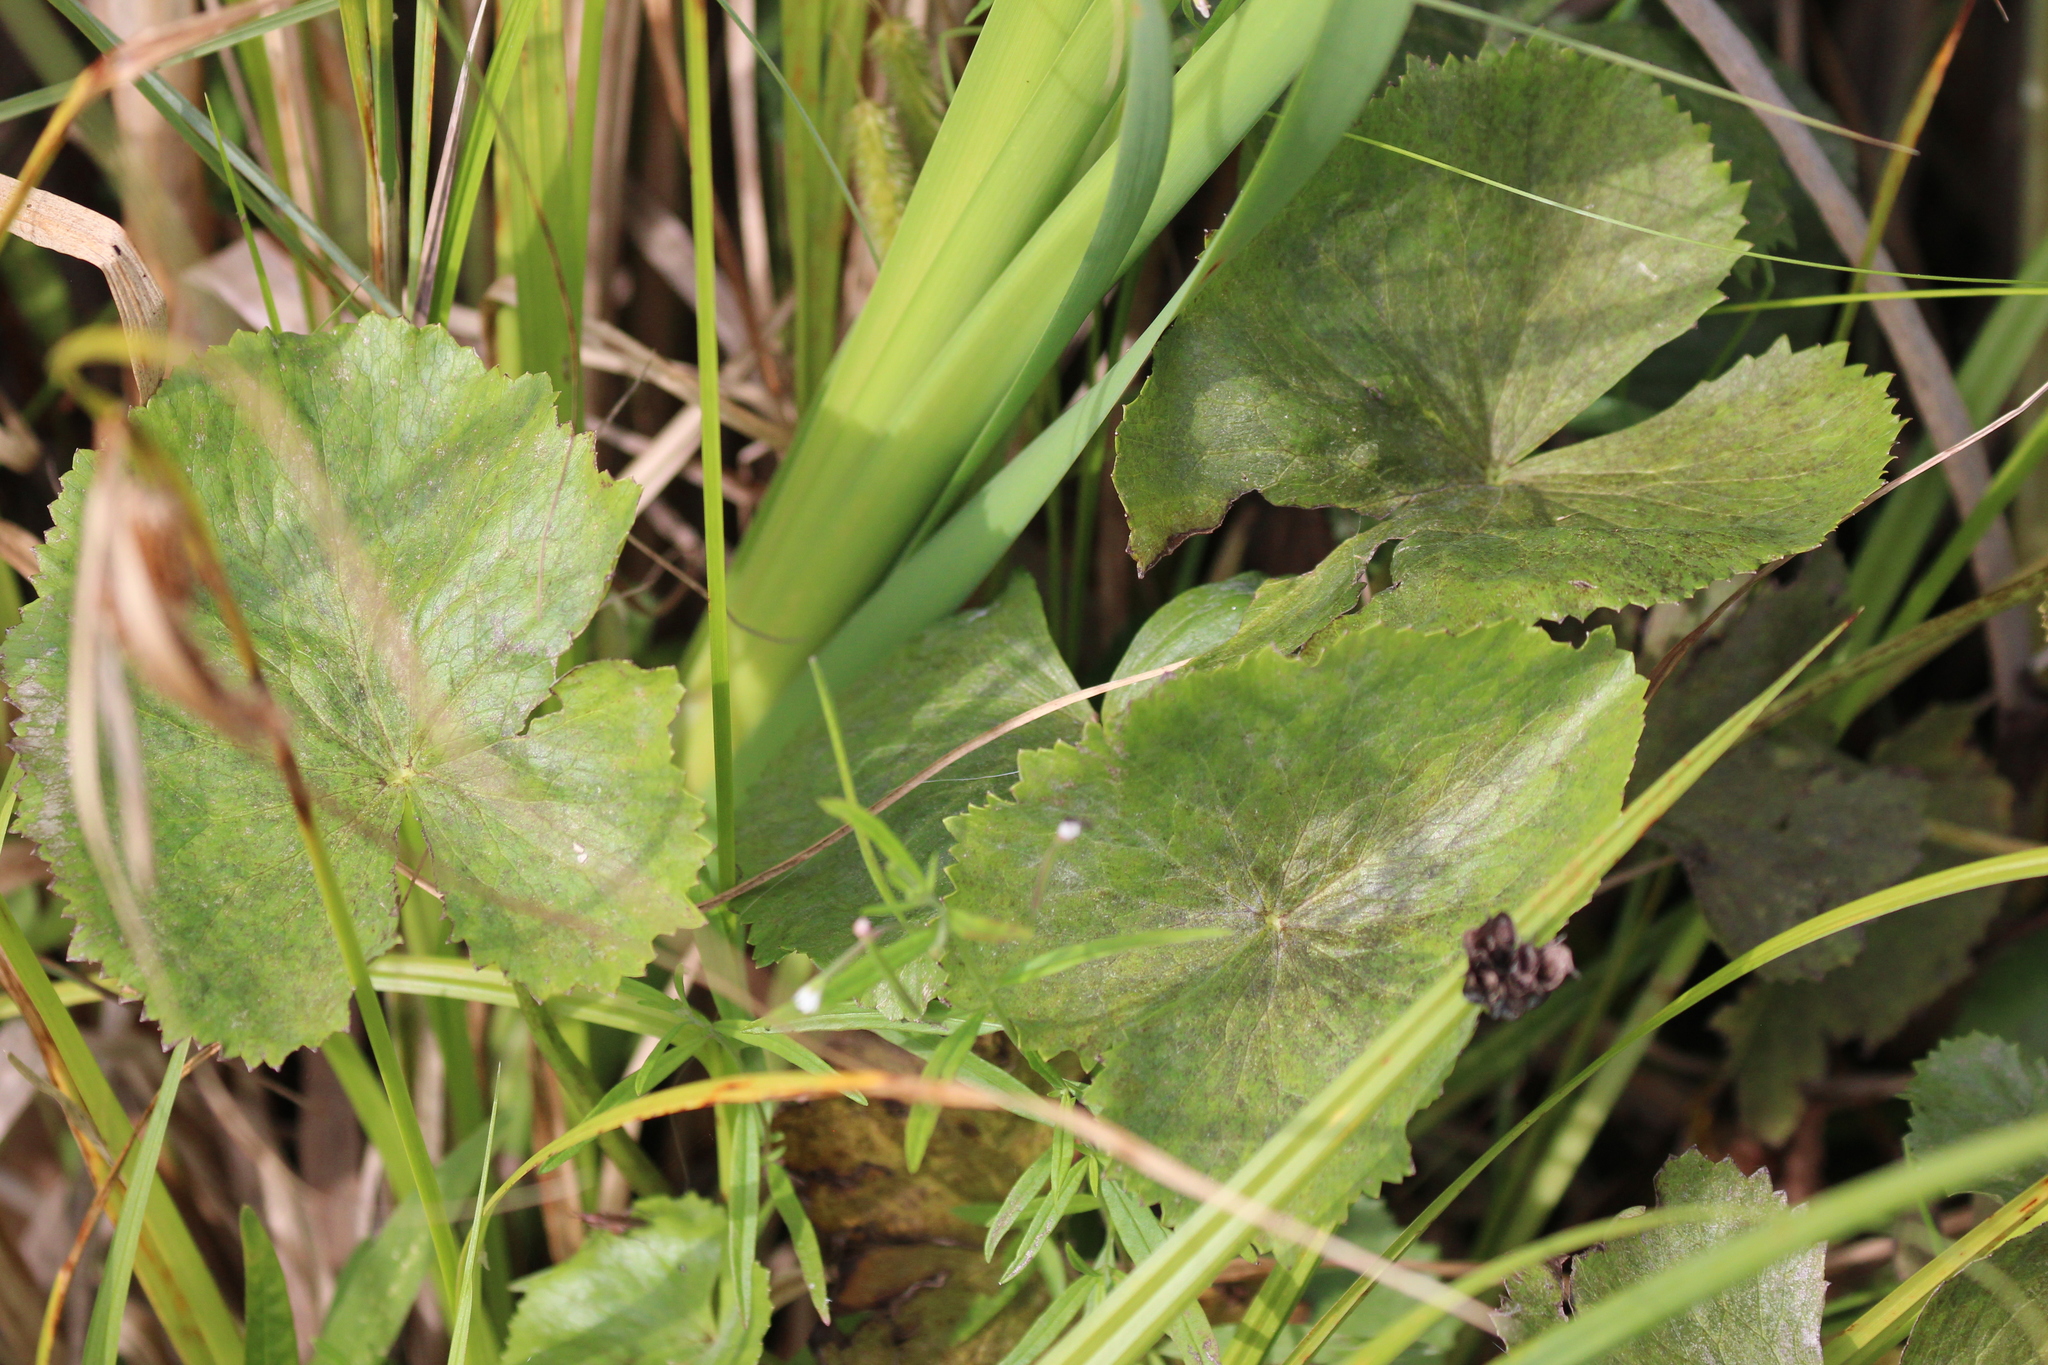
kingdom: Plantae
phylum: Tracheophyta
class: Magnoliopsida
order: Ranunculales
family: Ranunculaceae
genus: Caltha
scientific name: Caltha palustris
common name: Marsh marigold
